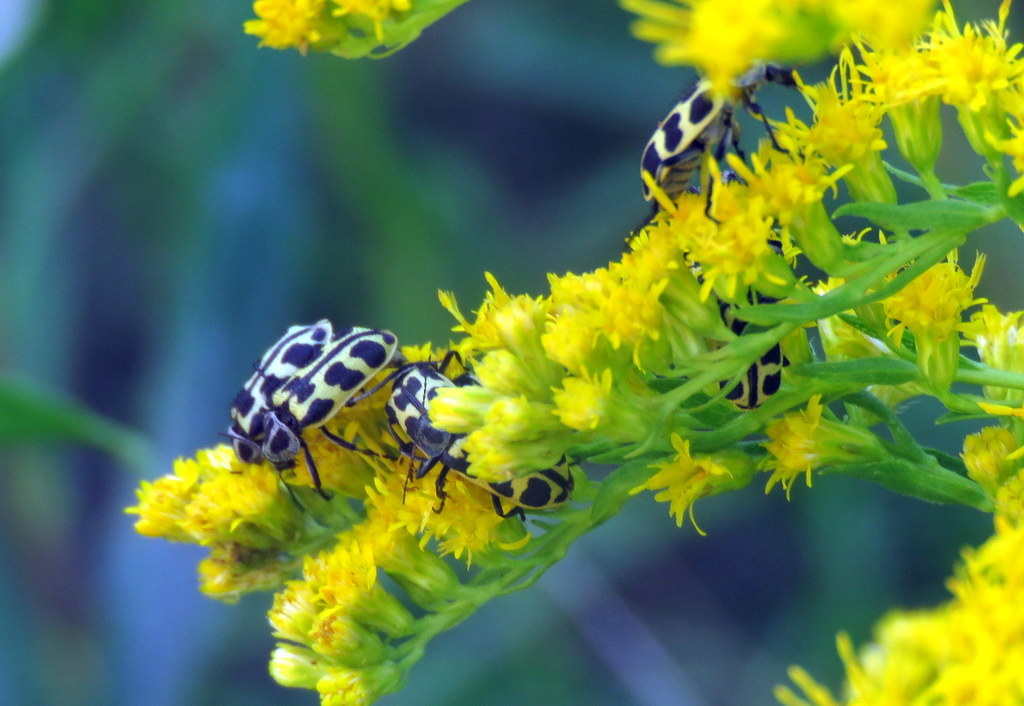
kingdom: Animalia
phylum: Arthropoda
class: Insecta
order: Coleoptera
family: Melyridae
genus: Astylus
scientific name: Astylus atromaculatus
